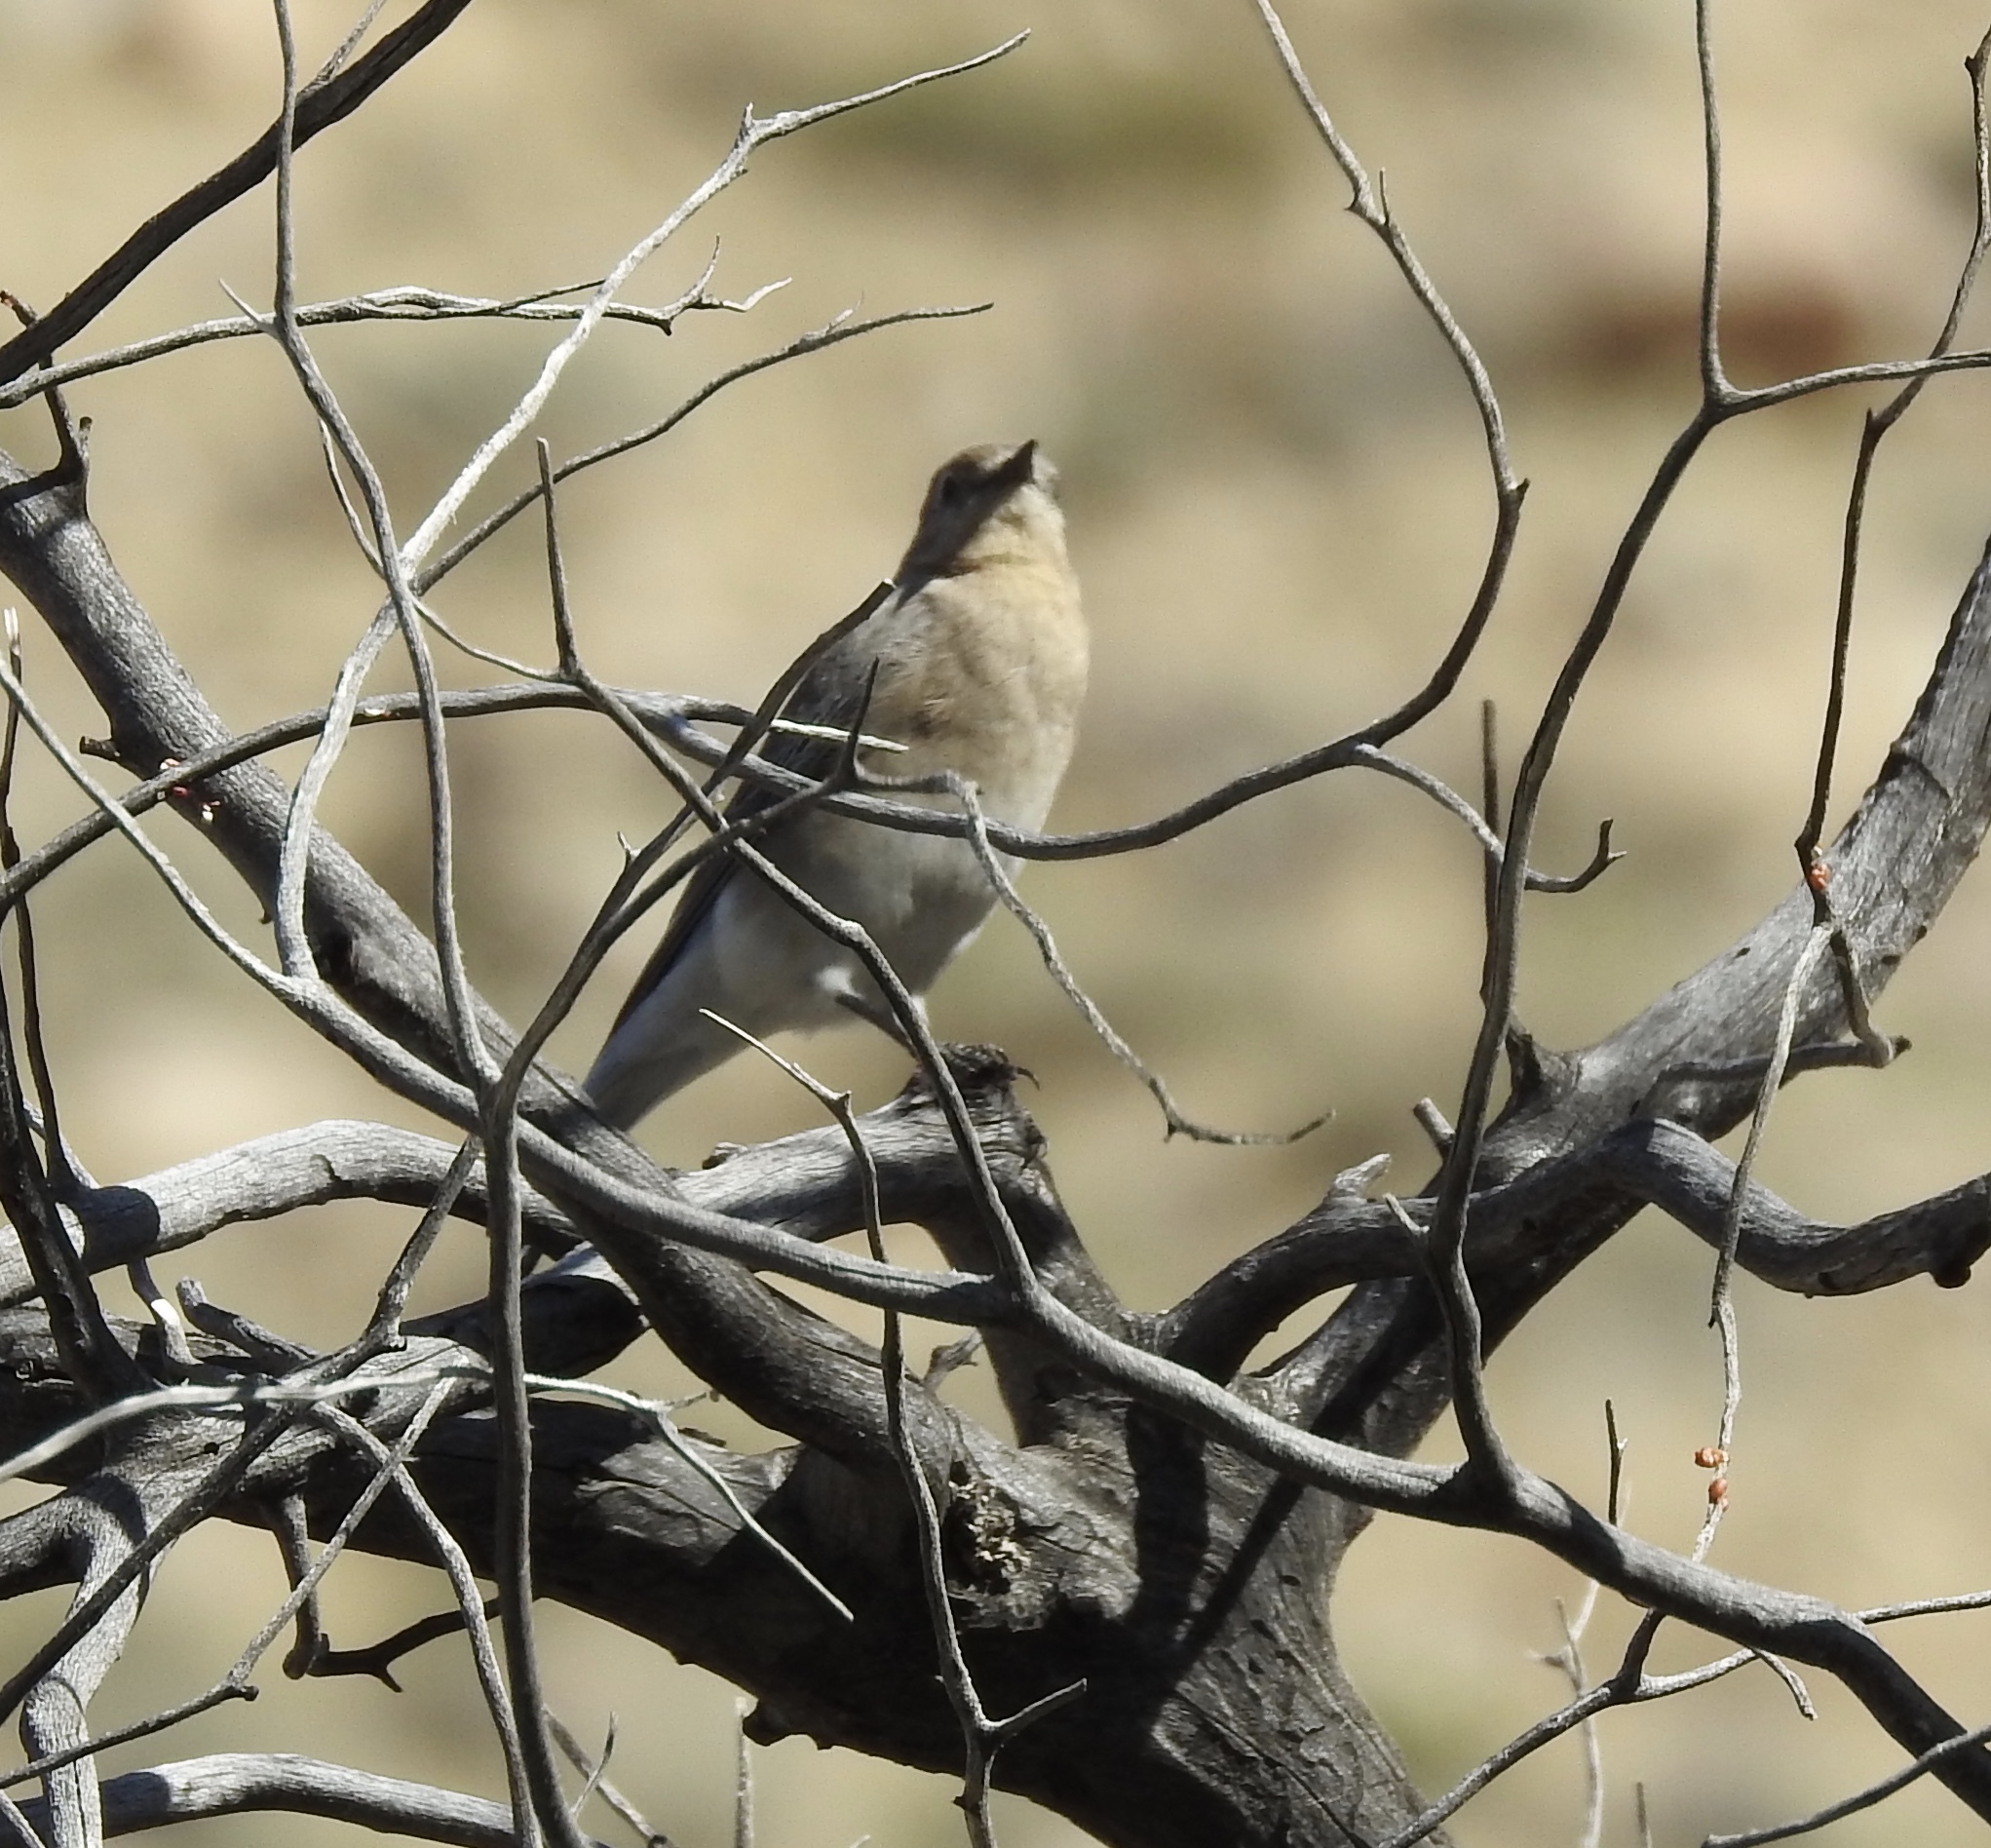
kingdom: Animalia
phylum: Chordata
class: Aves
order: Passeriformes
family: Turdidae
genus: Sialia
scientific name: Sialia currucoides
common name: Mountain bluebird
